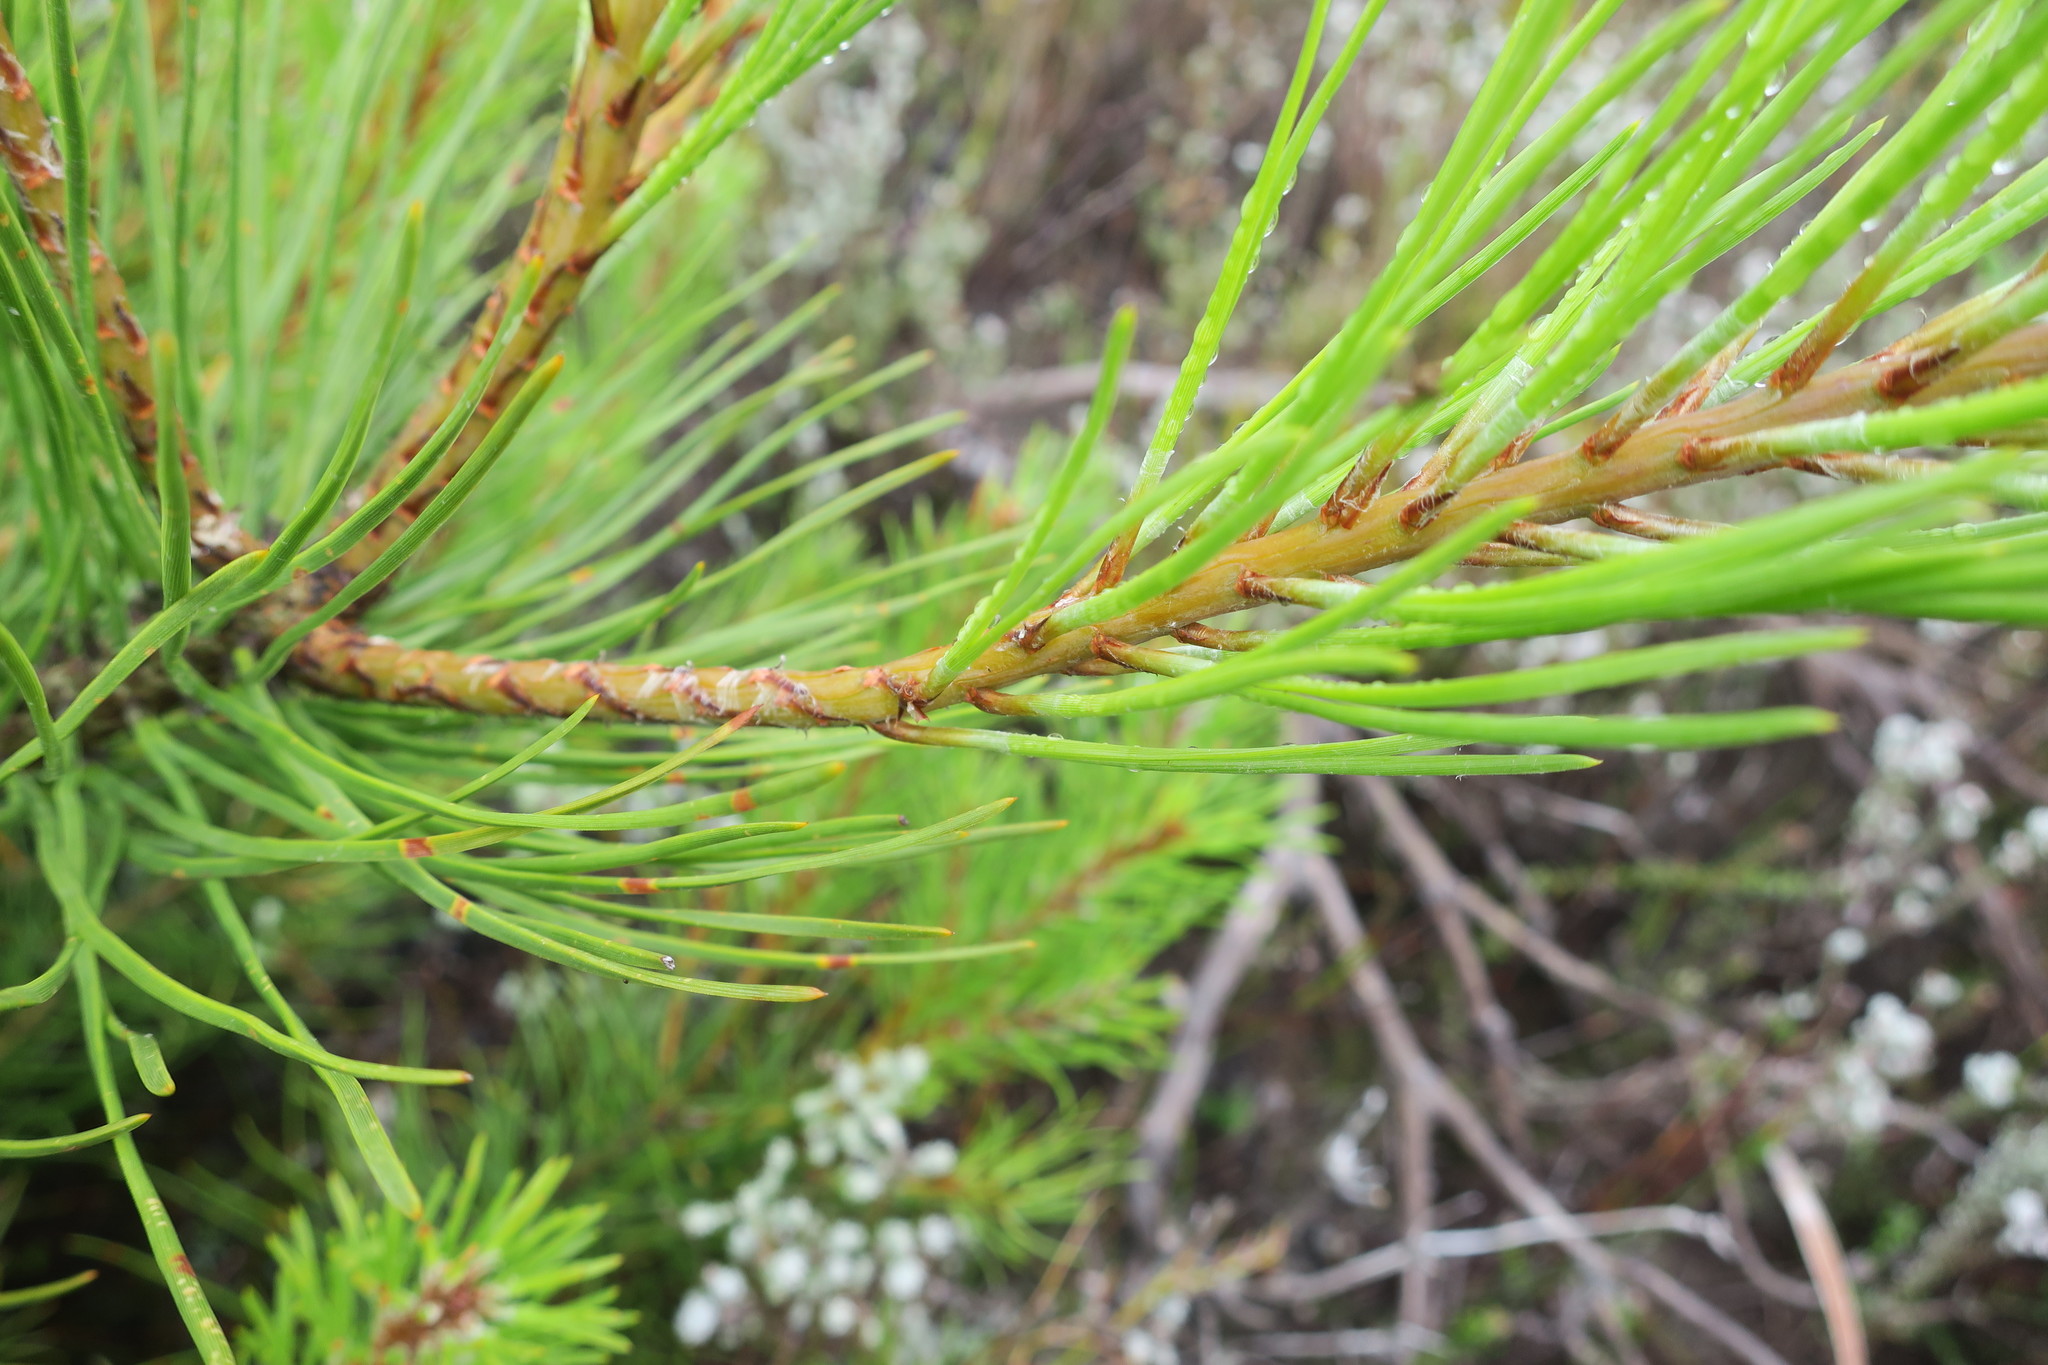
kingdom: Plantae
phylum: Tracheophyta
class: Pinopsida
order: Pinales
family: Pinaceae
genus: Pinus
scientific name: Pinus pinaster
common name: Maritime pine
